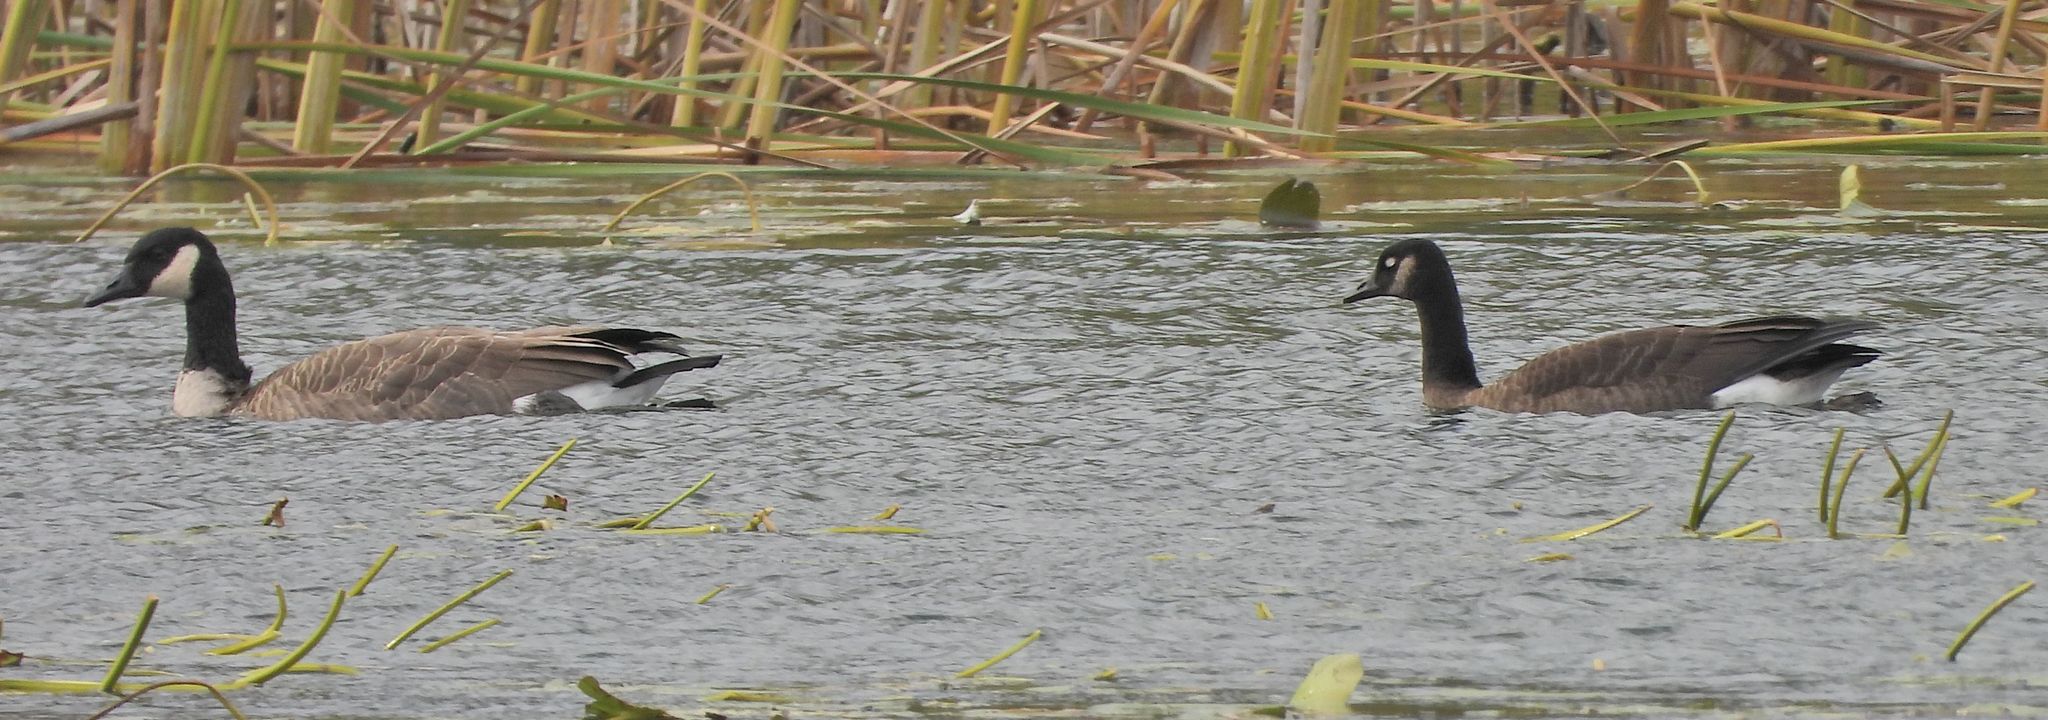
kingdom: Animalia
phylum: Chordata
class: Aves
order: Anseriformes
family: Anatidae
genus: Branta
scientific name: Branta canadensis
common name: Canada goose
